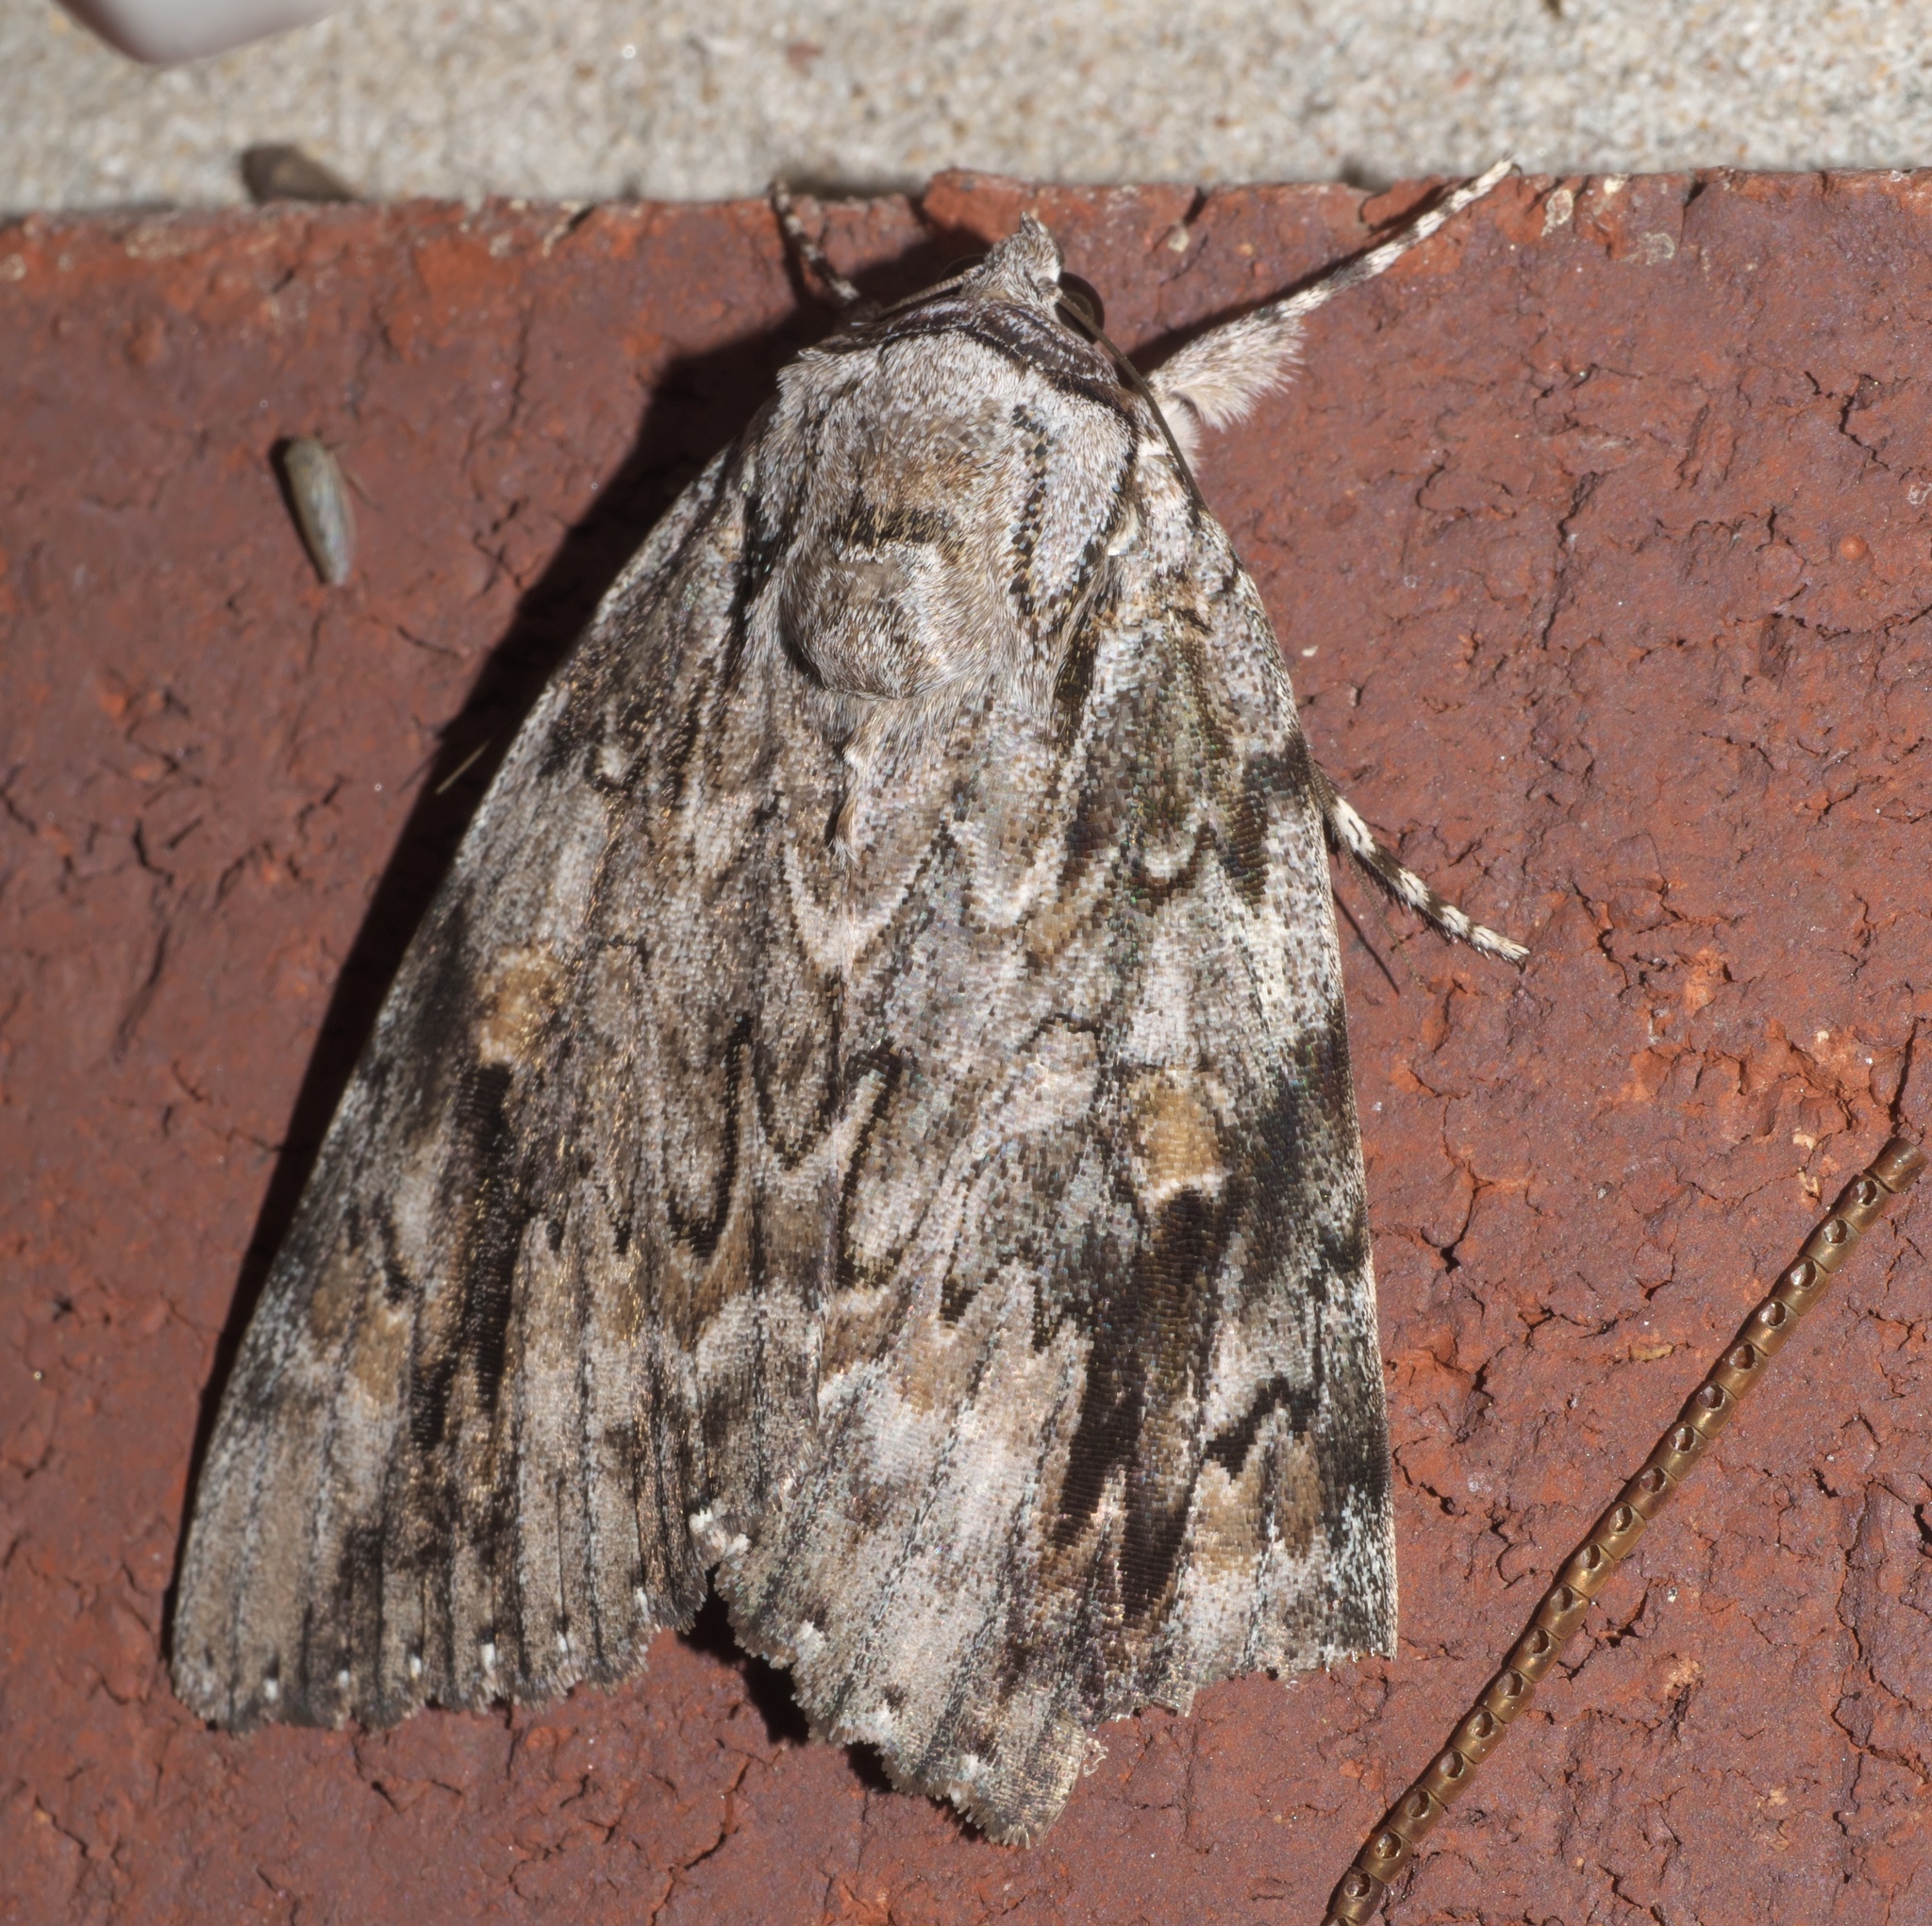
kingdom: Animalia
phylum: Arthropoda
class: Insecta
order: Lepidoptera
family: Erebidae
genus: Catocala
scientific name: Catocala maestosa
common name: Sad underwing
